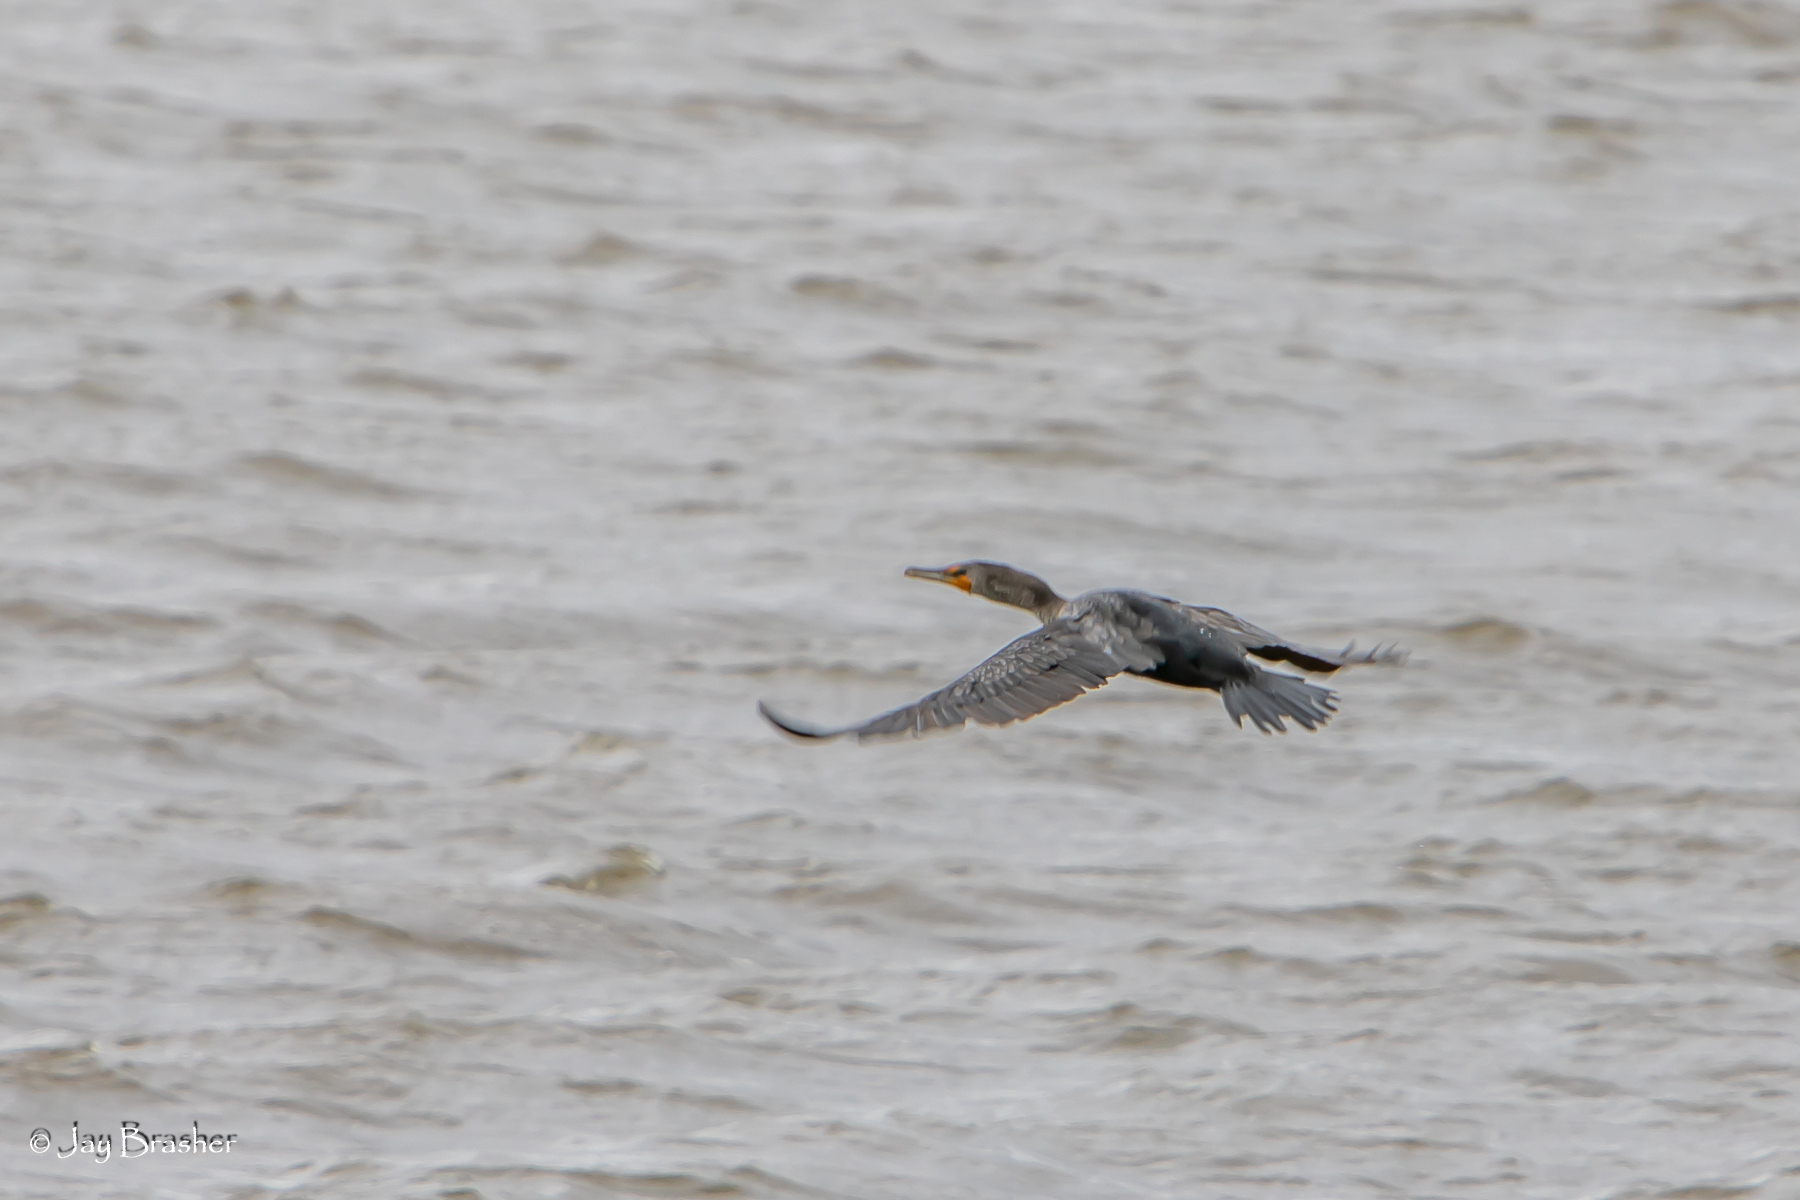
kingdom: Animalia
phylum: Chordata
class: Aves
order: Suliformes
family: Phalacrocoracidae
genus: Phalacrocorax
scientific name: Phalacrocorax auritus
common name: Double-crested cormorant
